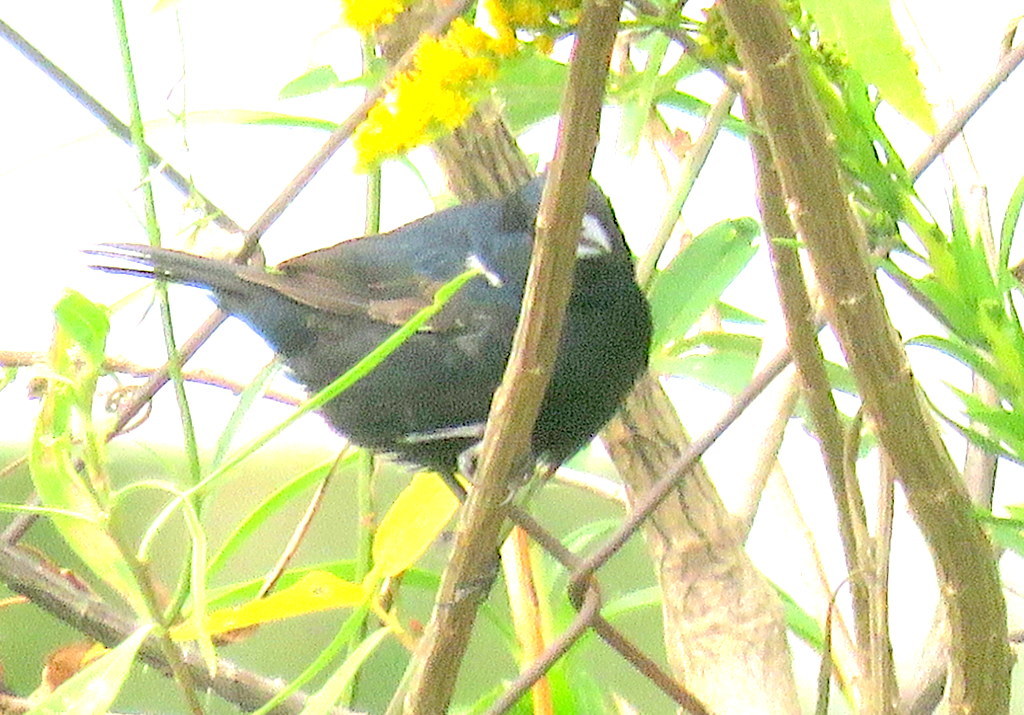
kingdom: Animalia
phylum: Chordata
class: Aves
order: Passeriformes
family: Thraupidae
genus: Volatinia
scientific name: Volatinia jacarina
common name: Blue-black grassquit
